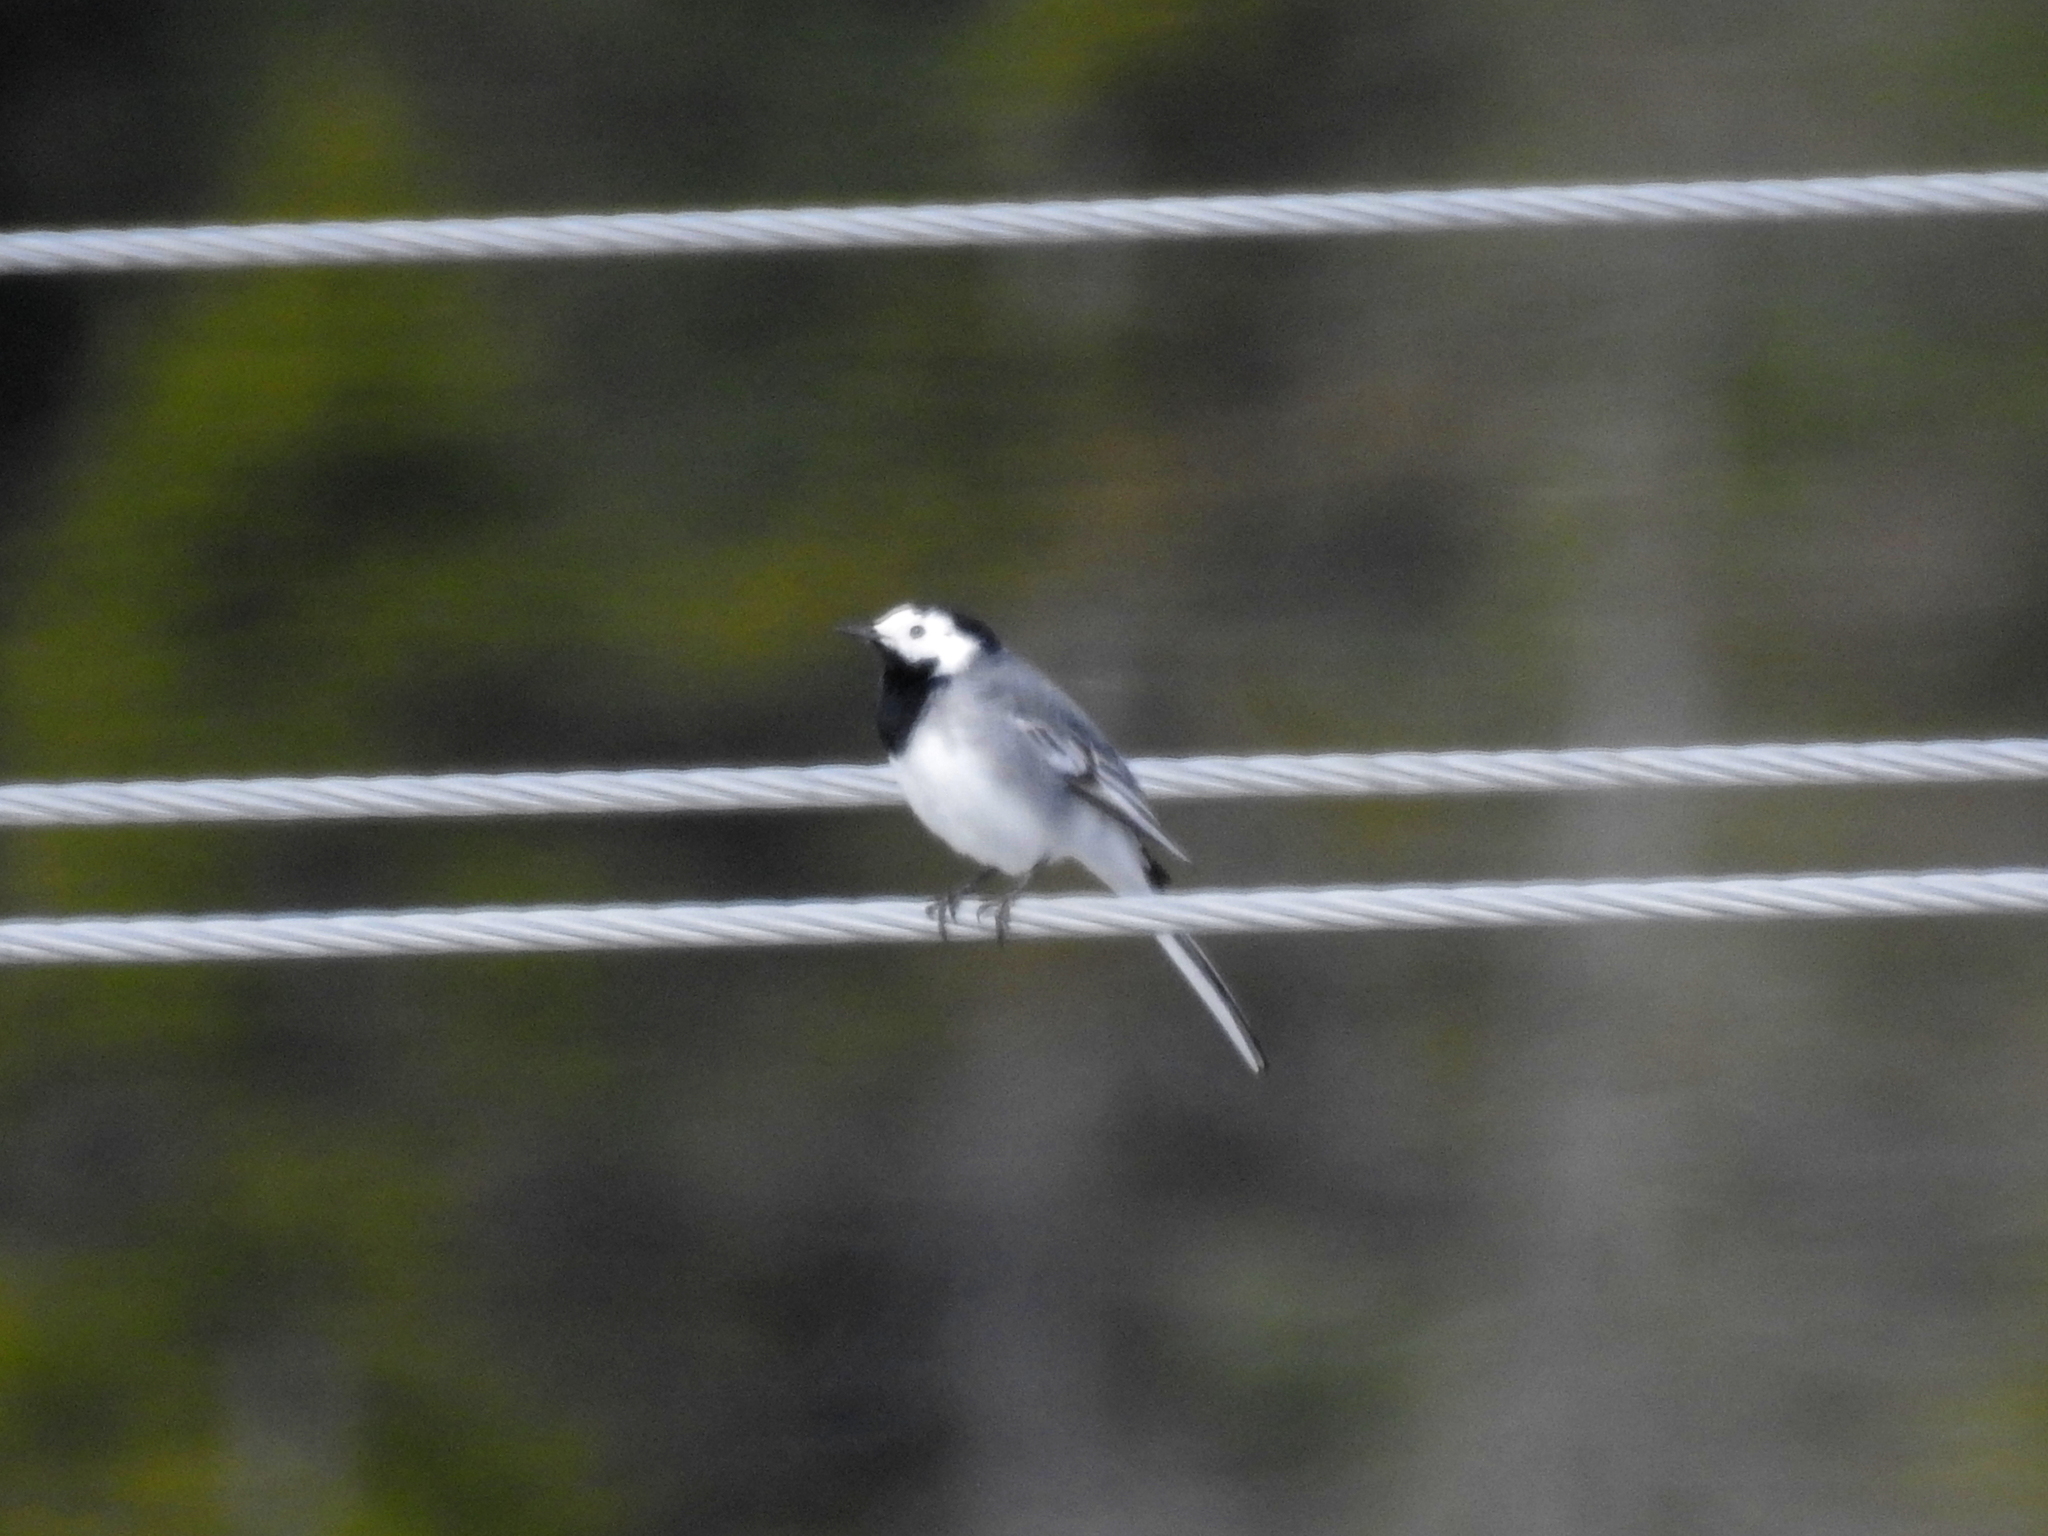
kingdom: Animalia
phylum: Chordata
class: Aves
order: Passeriformes
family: Motacillidae
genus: Motacilla
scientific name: Motacilla alba
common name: White wagtail
